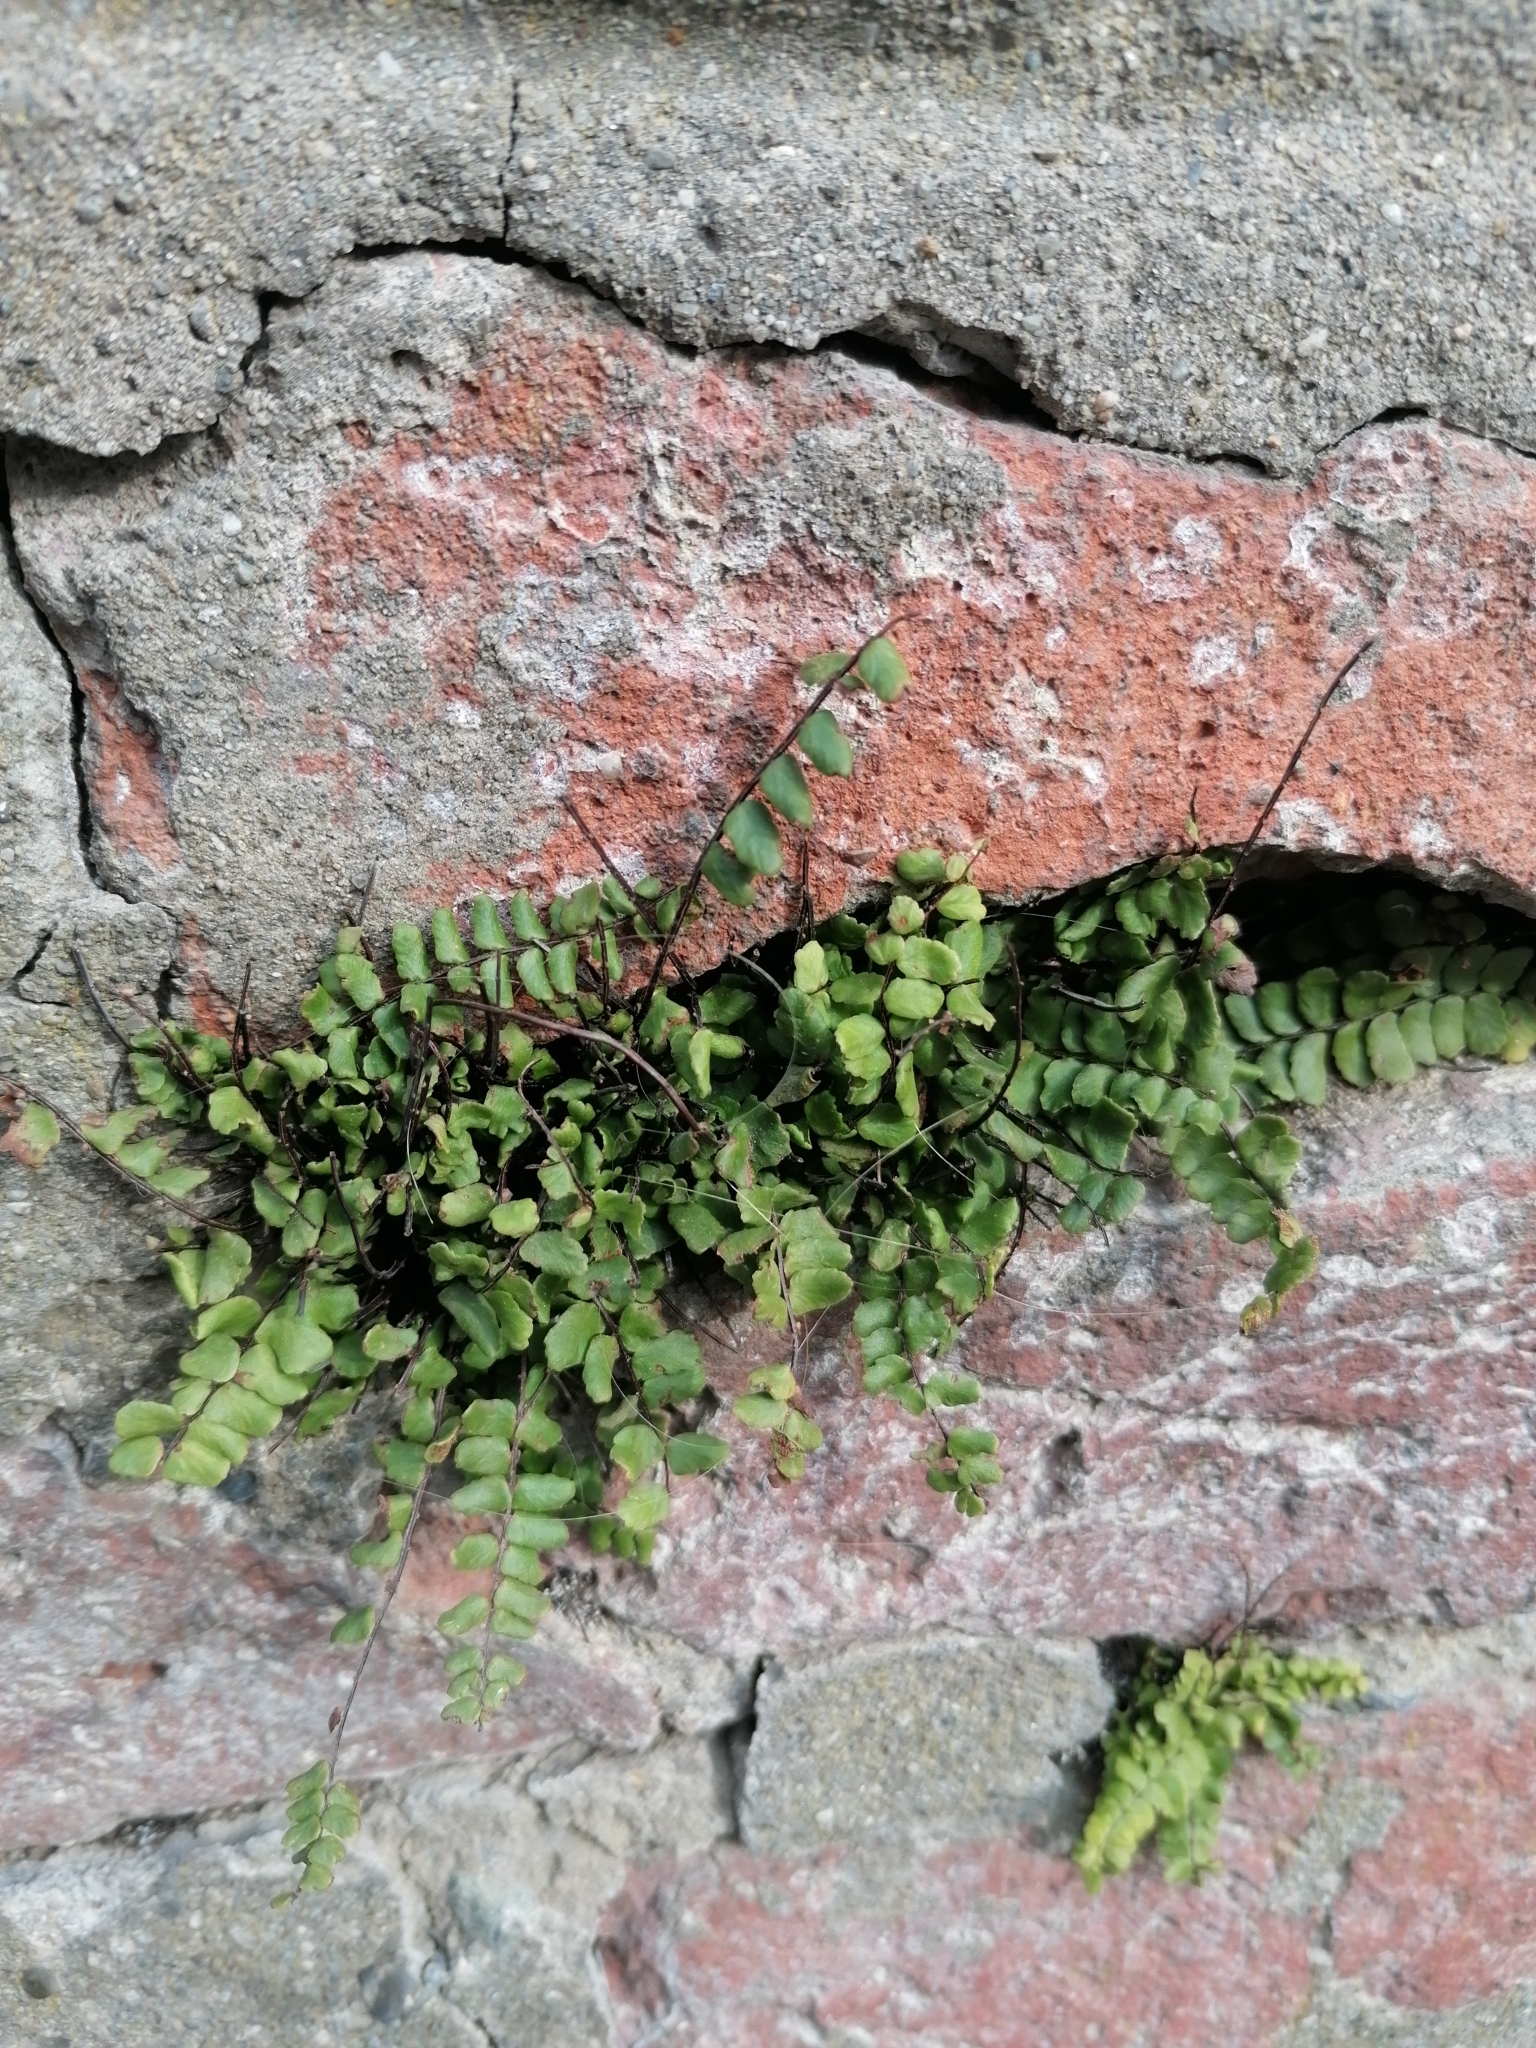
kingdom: Plantae
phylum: Tracheophyta
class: Polypodiopsida
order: Polypodiales
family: Aspleniaceae
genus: Asplenium
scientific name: Asplenium trichomanes
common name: Maidenhair spleenwort
